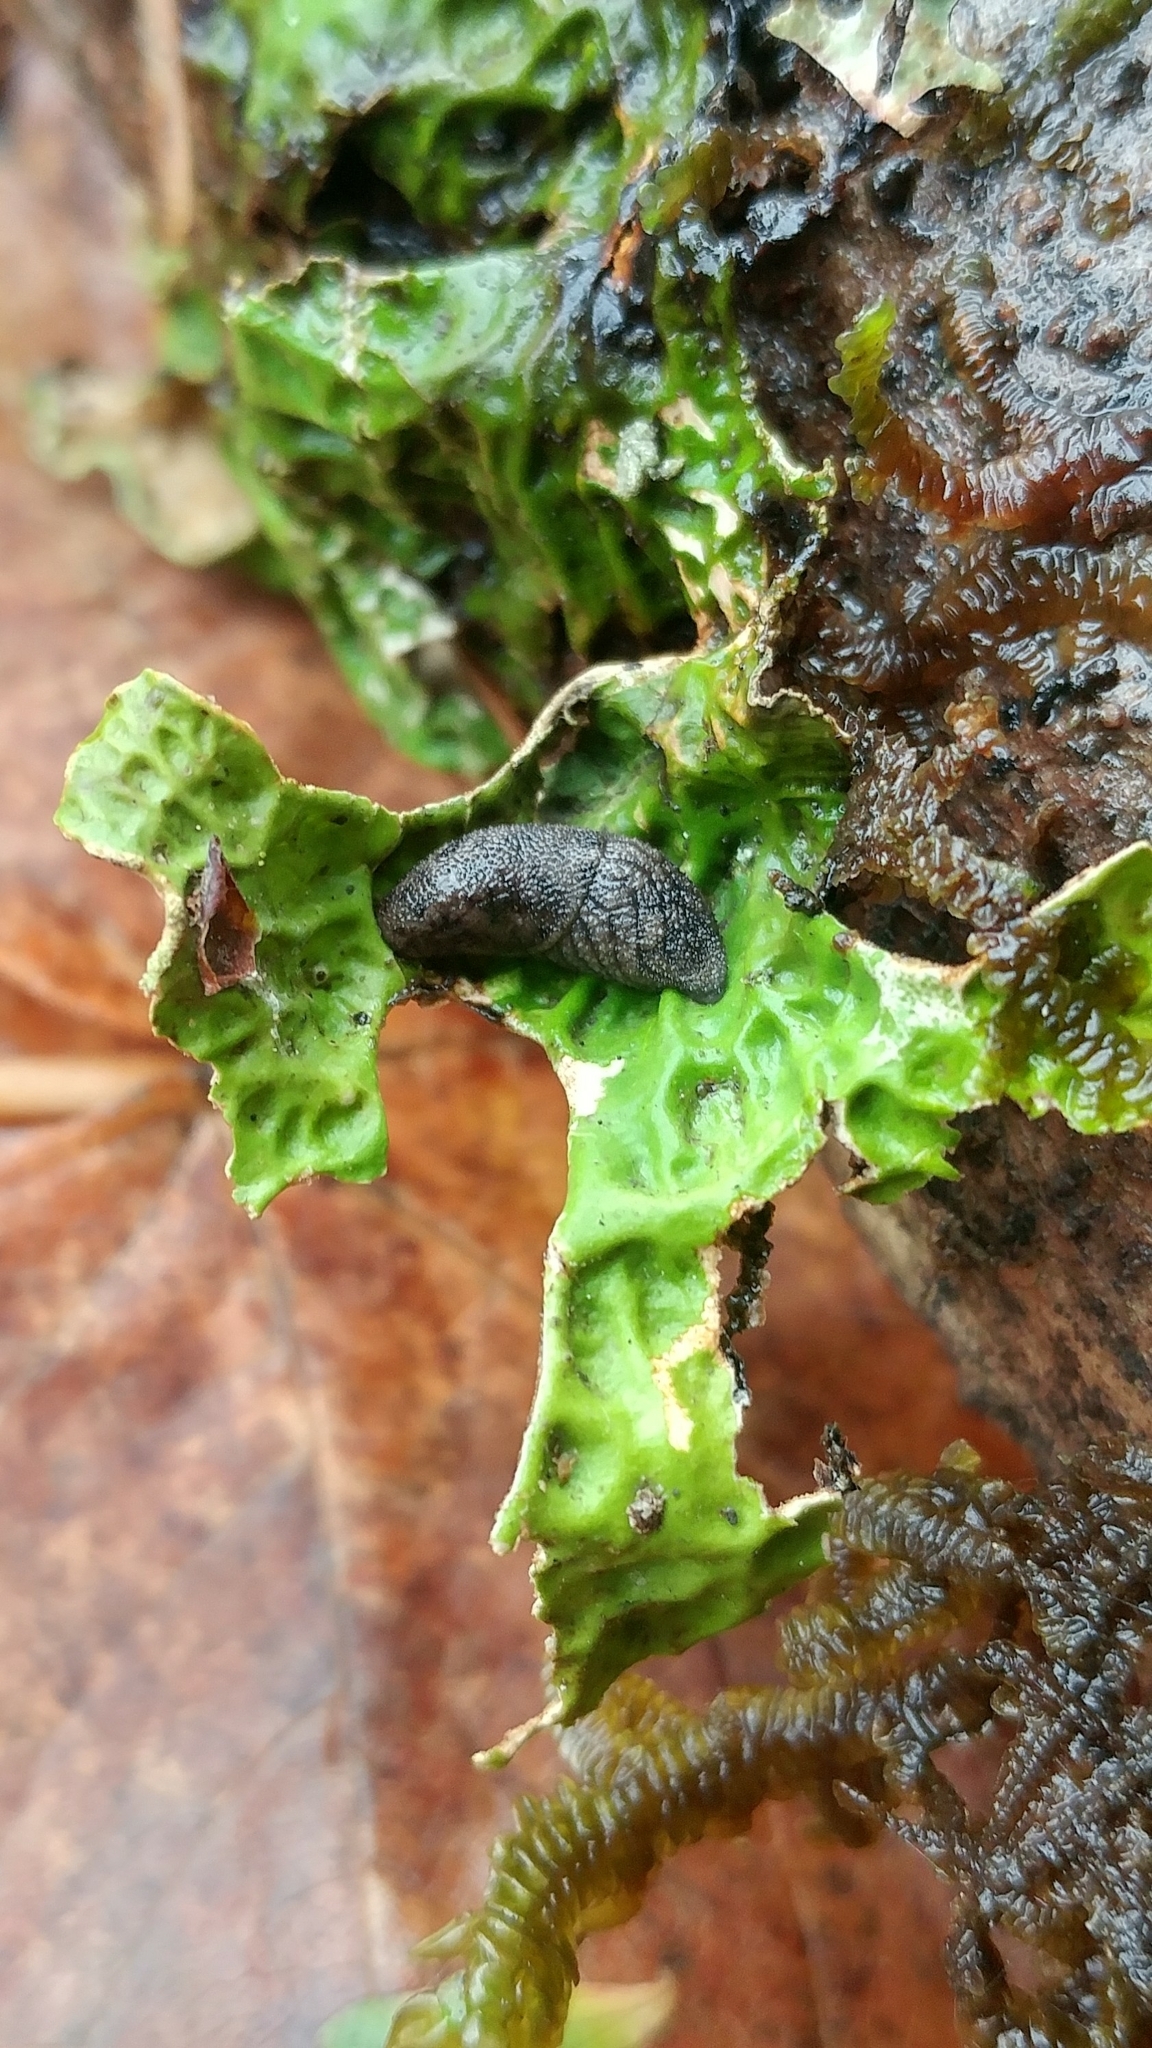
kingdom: Animalia
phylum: Mollusca
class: Gastropoda
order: Stylommatophora
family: Ariolimacidae
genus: Prophysaon
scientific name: Prophysaon dubium
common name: Papillose taildropper
